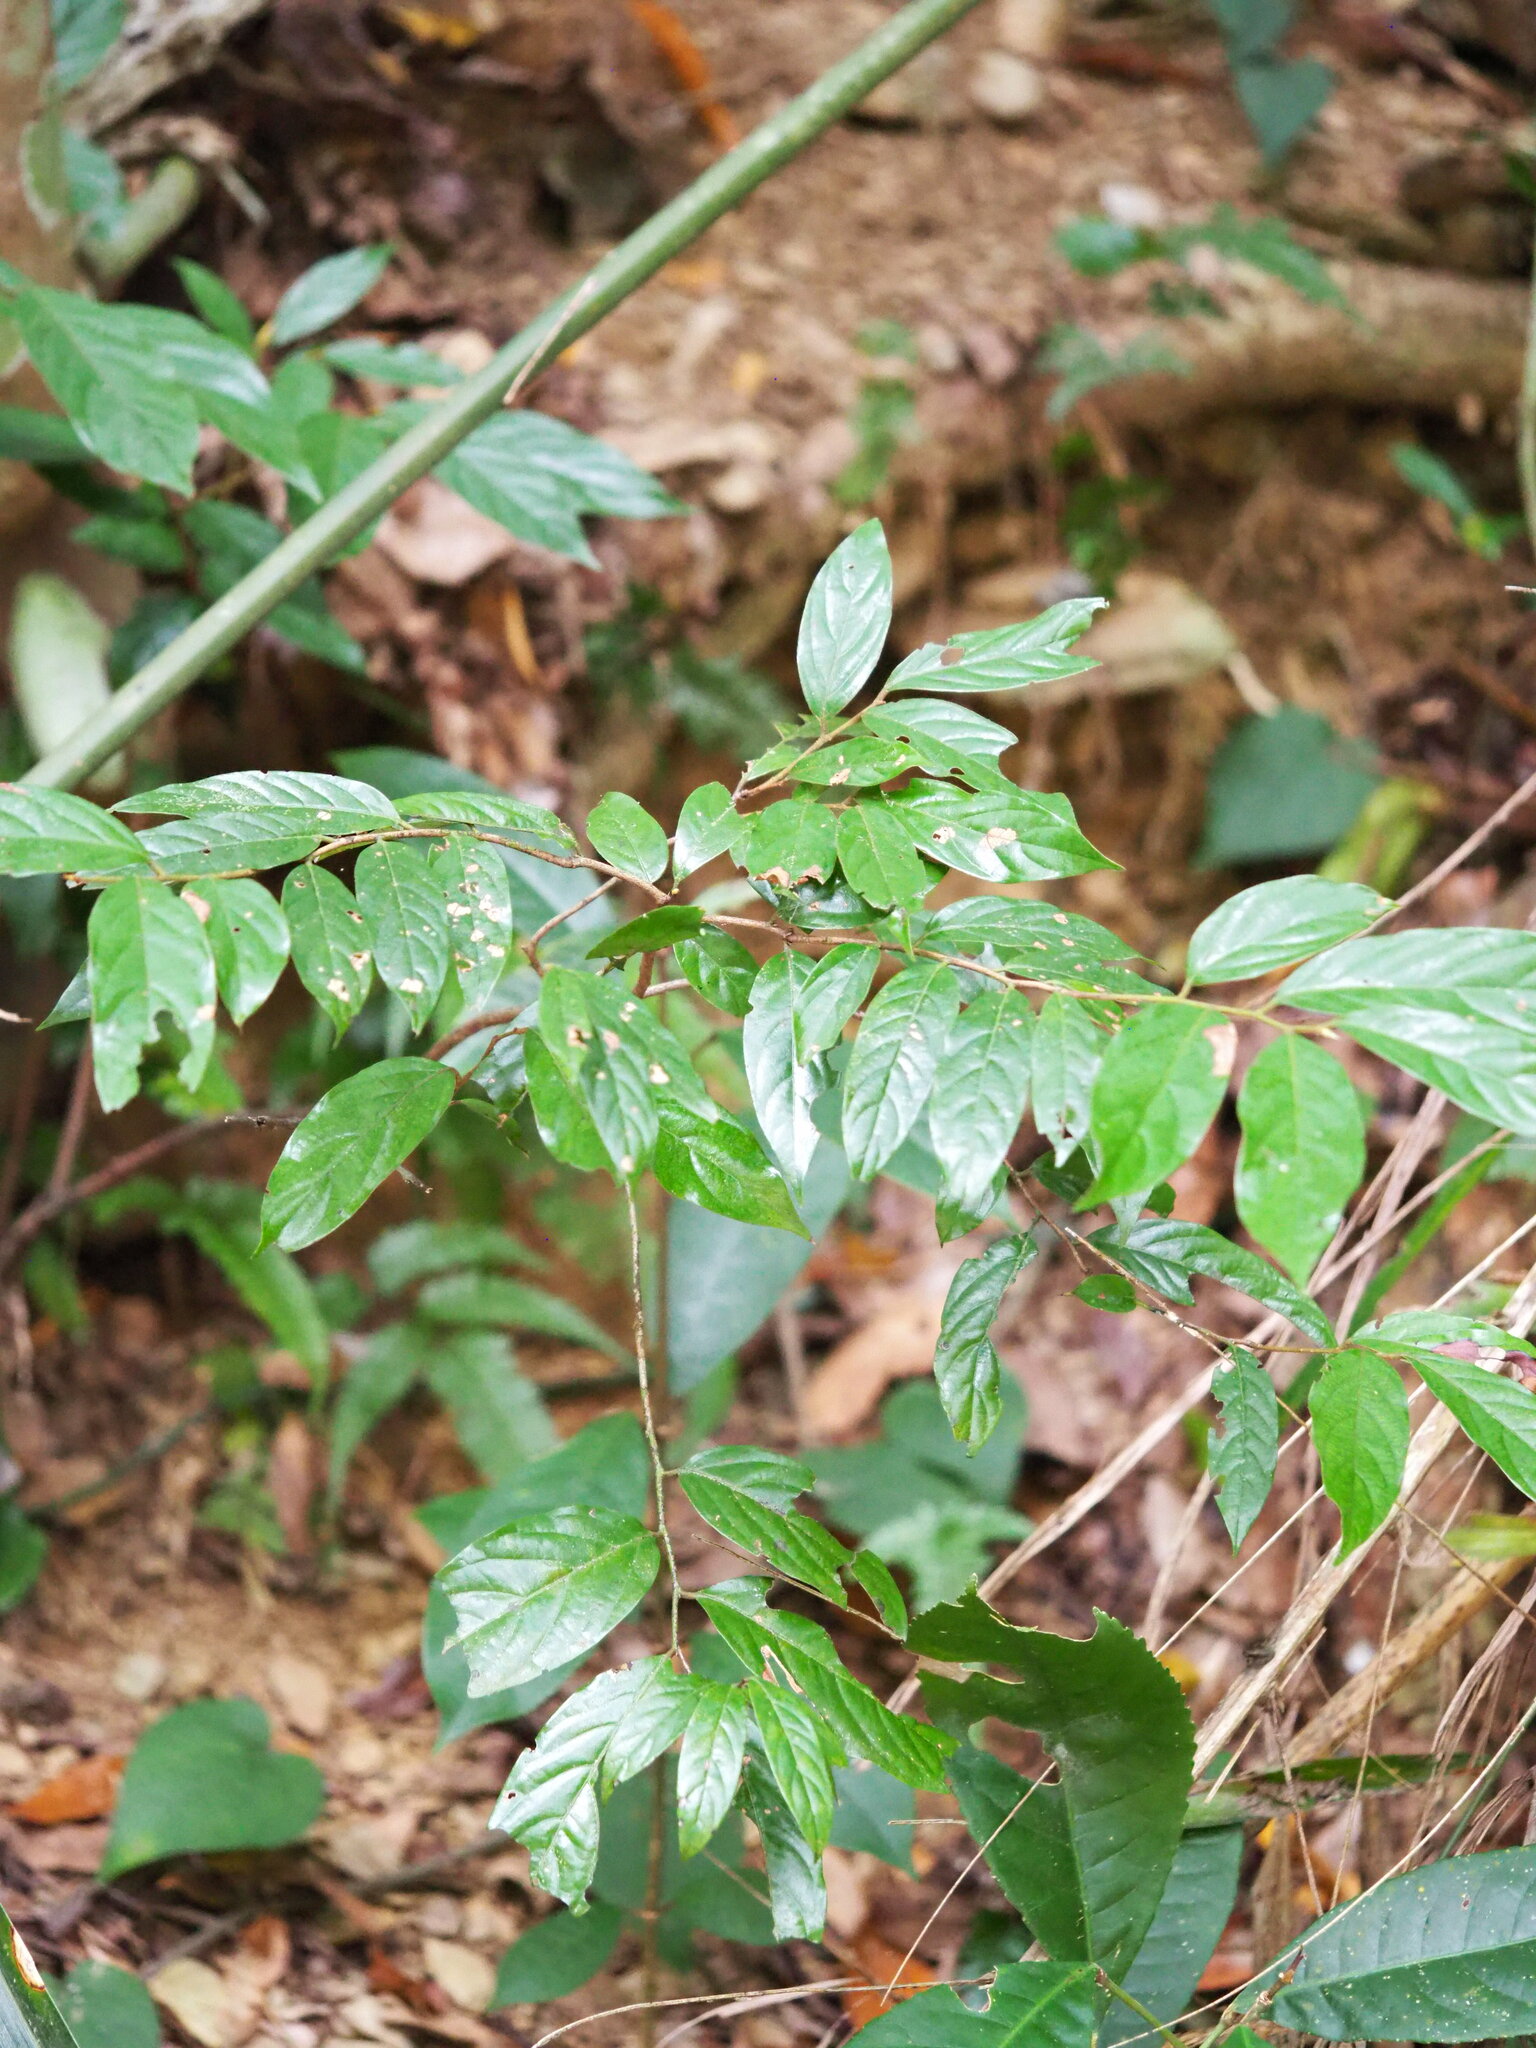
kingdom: Plantae
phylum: Tracheophyta
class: Magnoliopsida
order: Ericales
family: Ebenaceae
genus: Diospyros
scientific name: Diospyros eriantha
